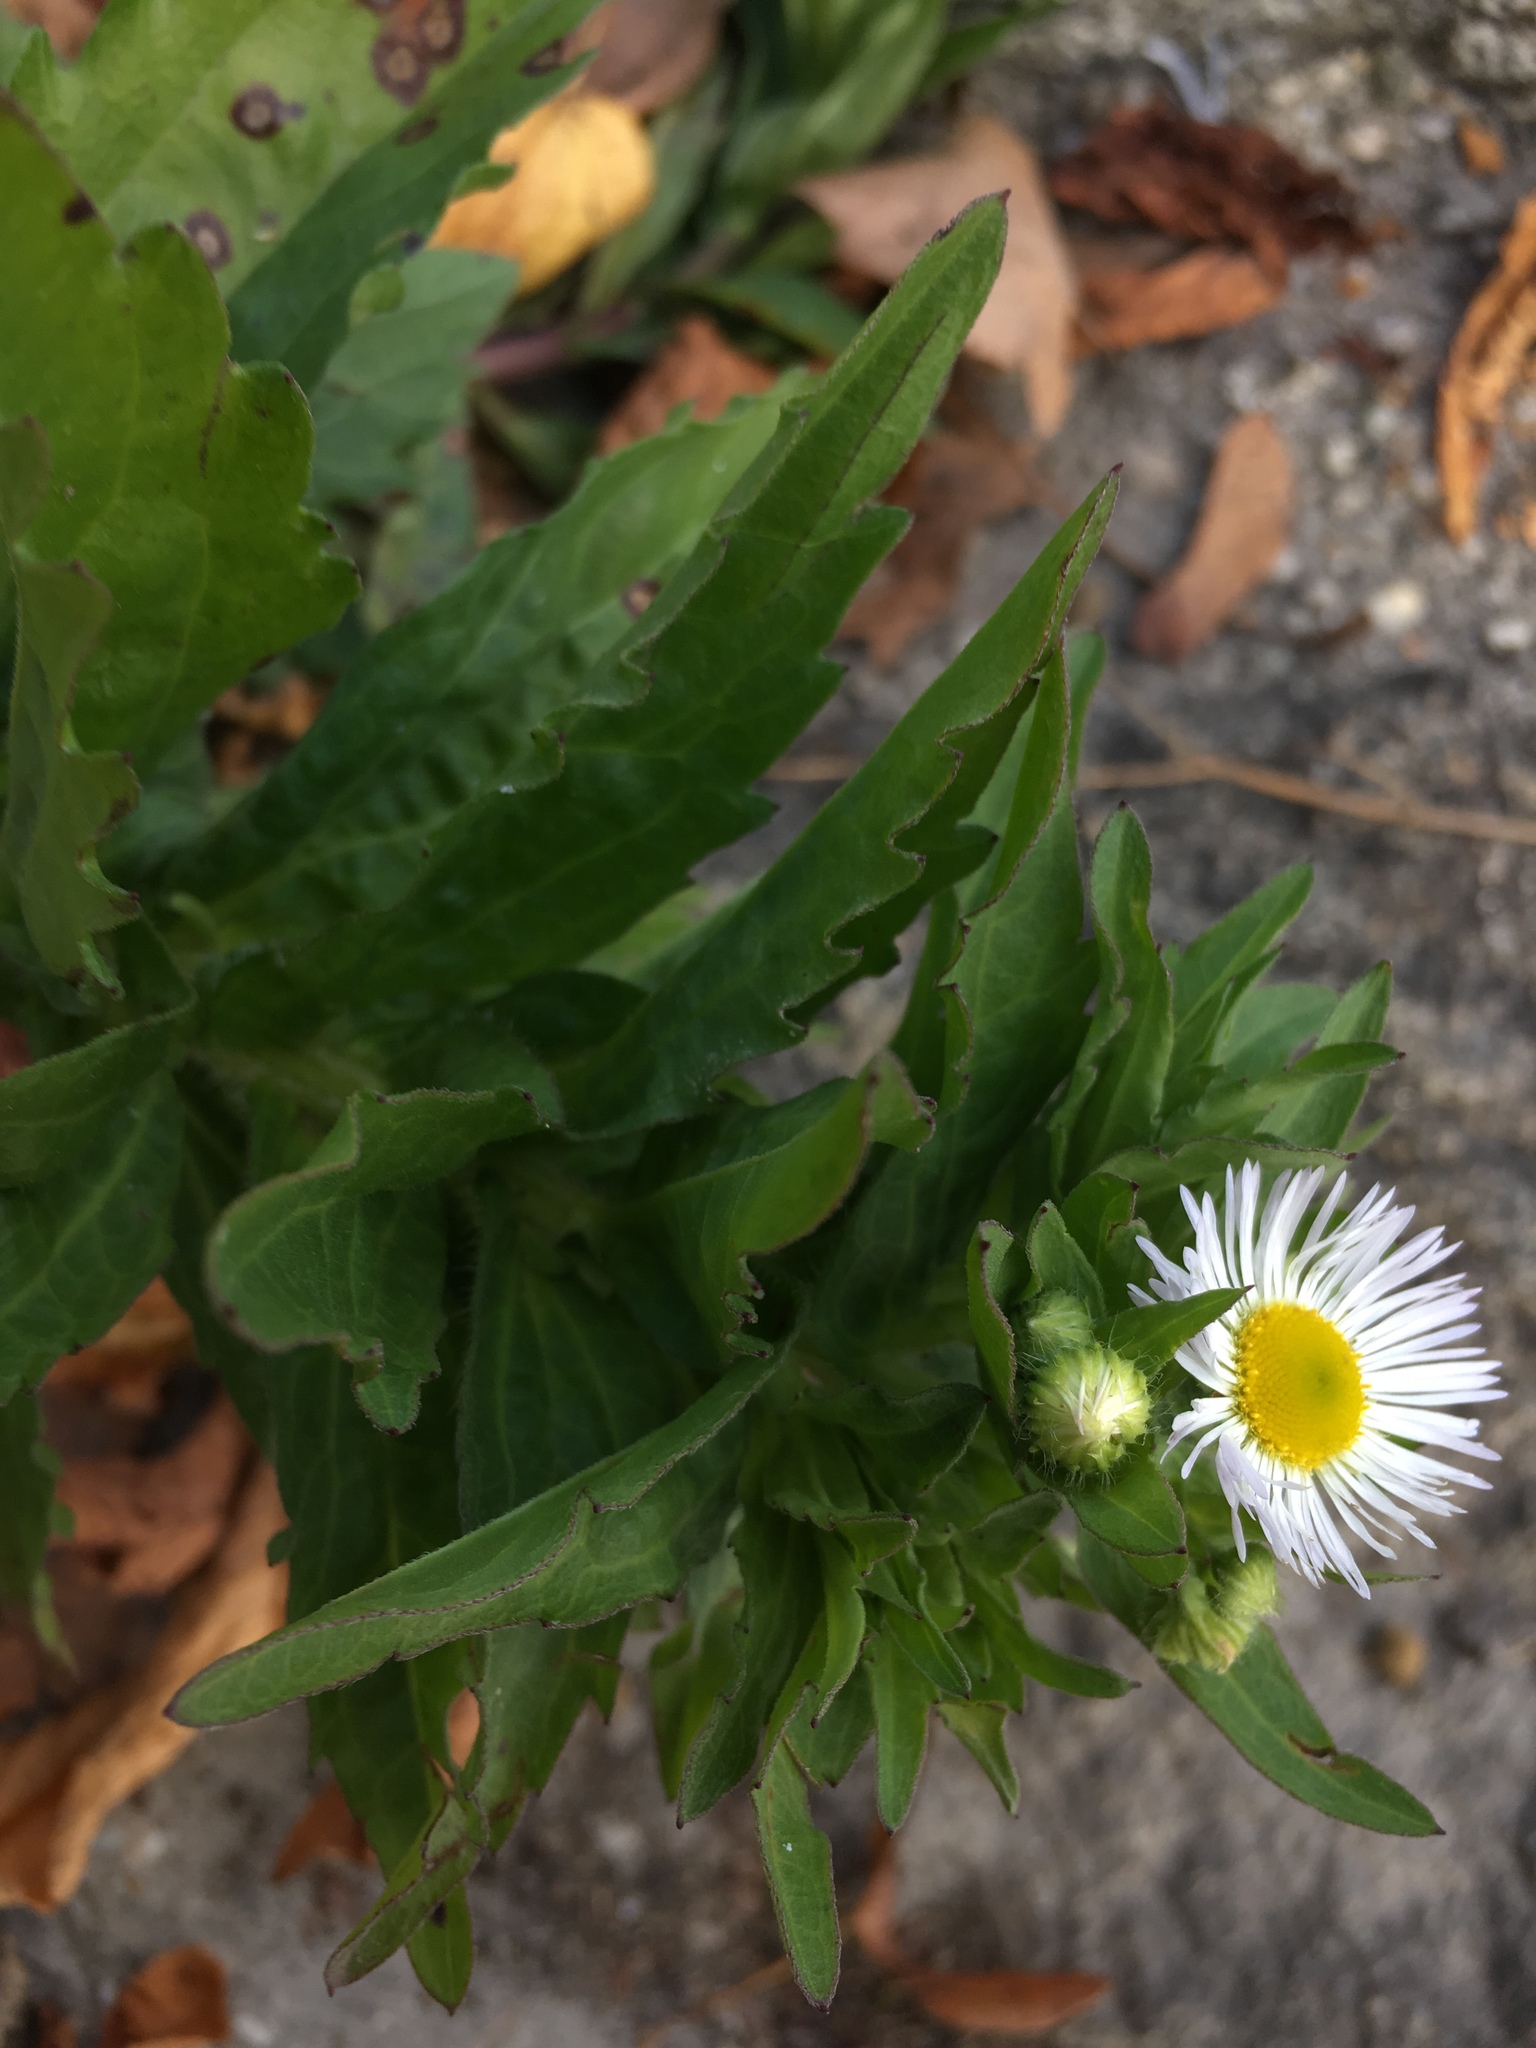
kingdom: Plantae
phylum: Tracheophyta
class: Magnoliopsida
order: Asterales
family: Asteraceae
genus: Erigeron
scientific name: Erigeron annuus
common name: Tall fleabane
